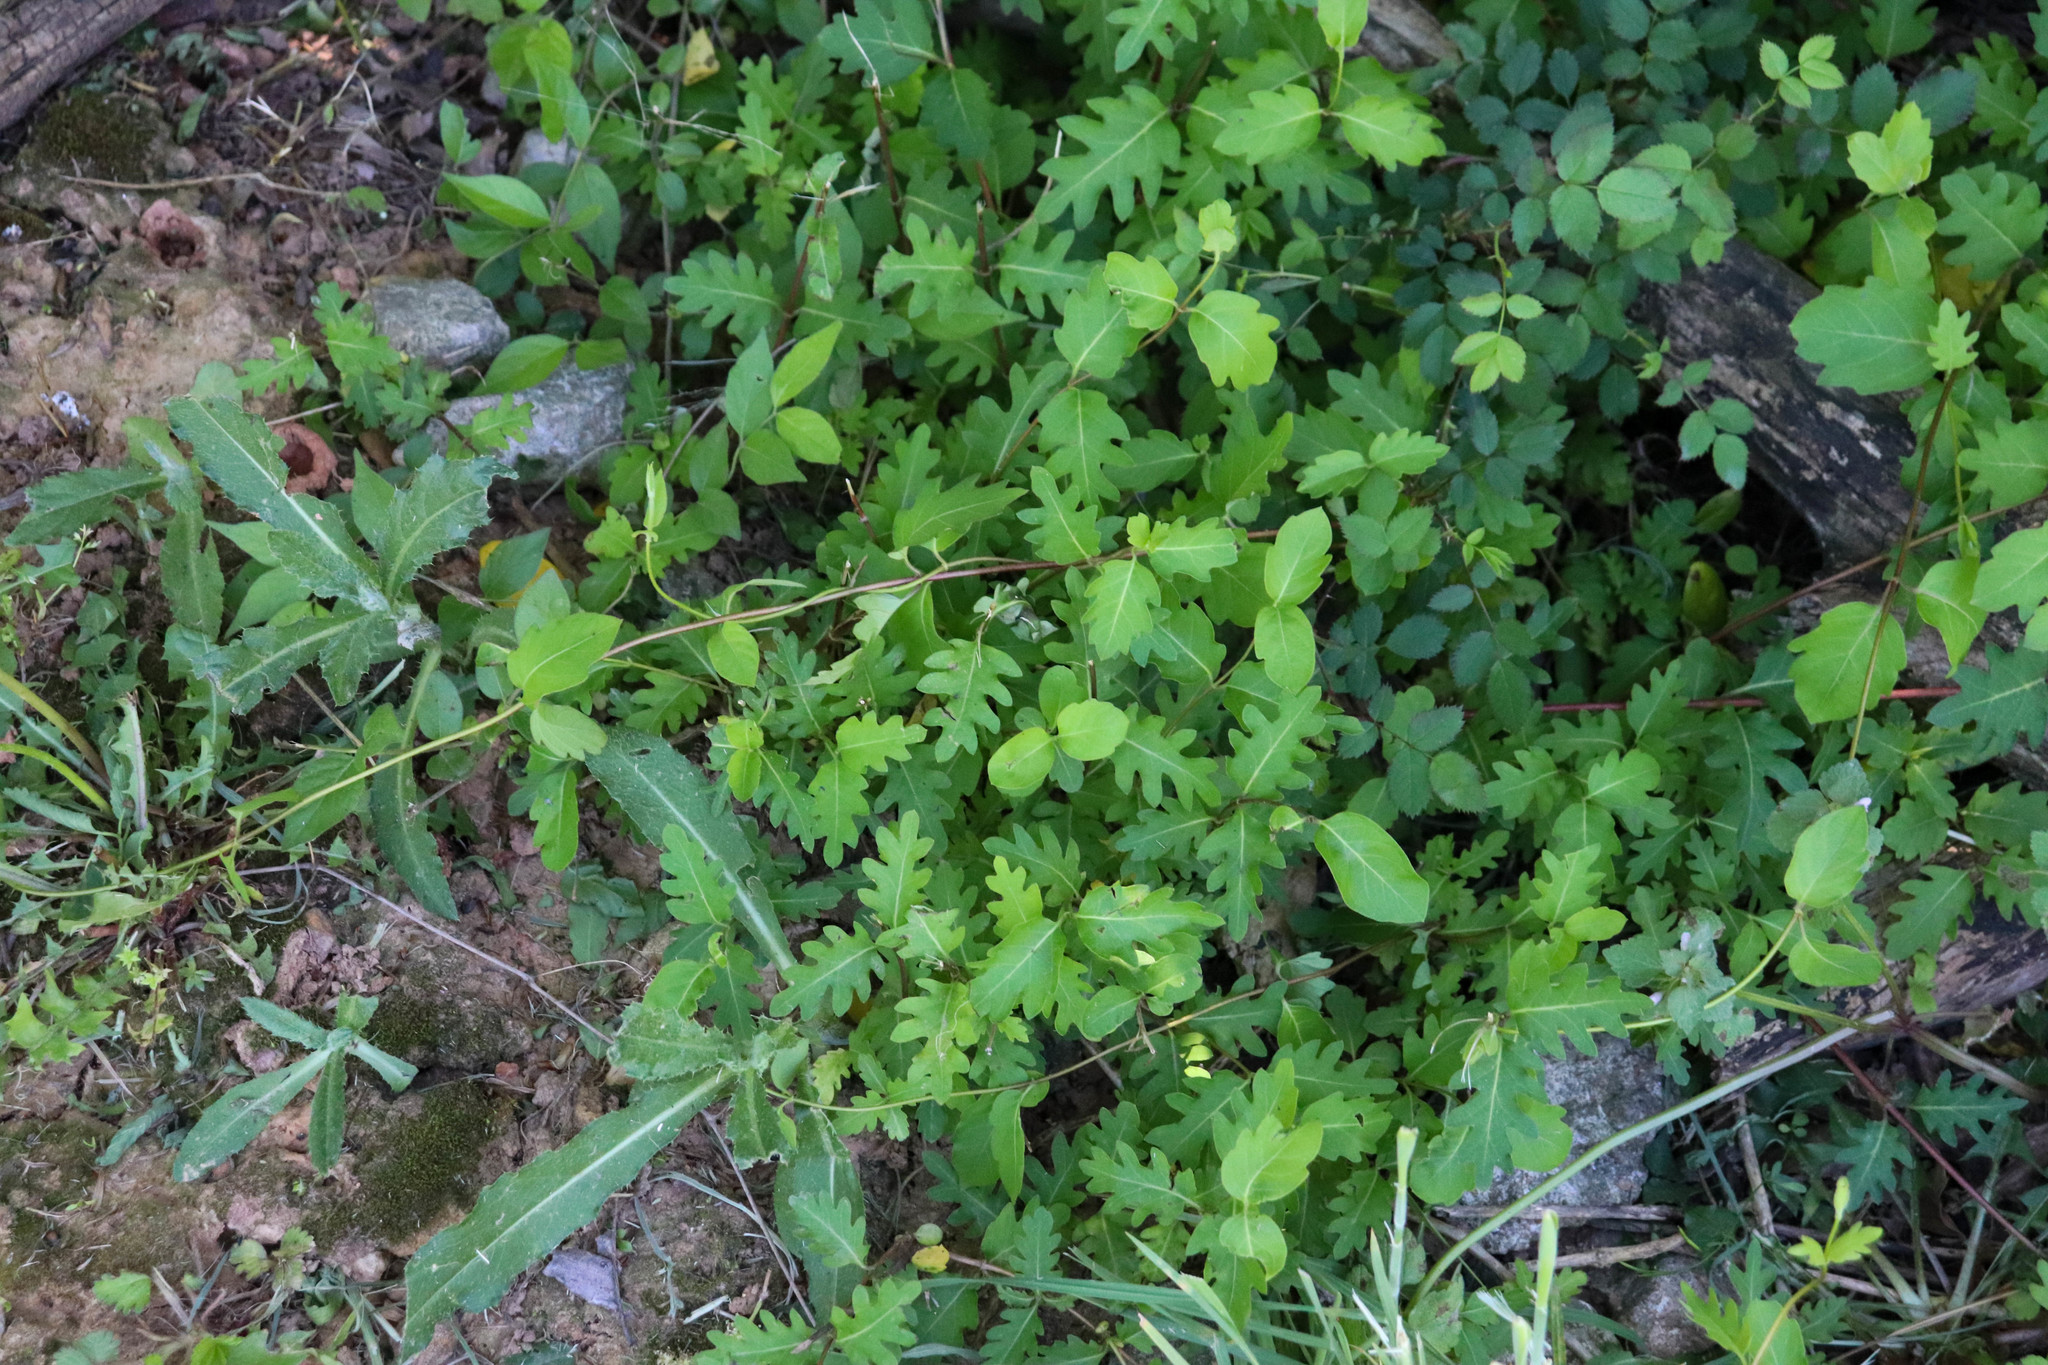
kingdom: Plantae
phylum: Tracheophyta
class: Magnoliopsida
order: Dipsacales
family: Caprifoliaceae
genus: Lonicera
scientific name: Lonicera japonica
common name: Japanese honeysuckle
